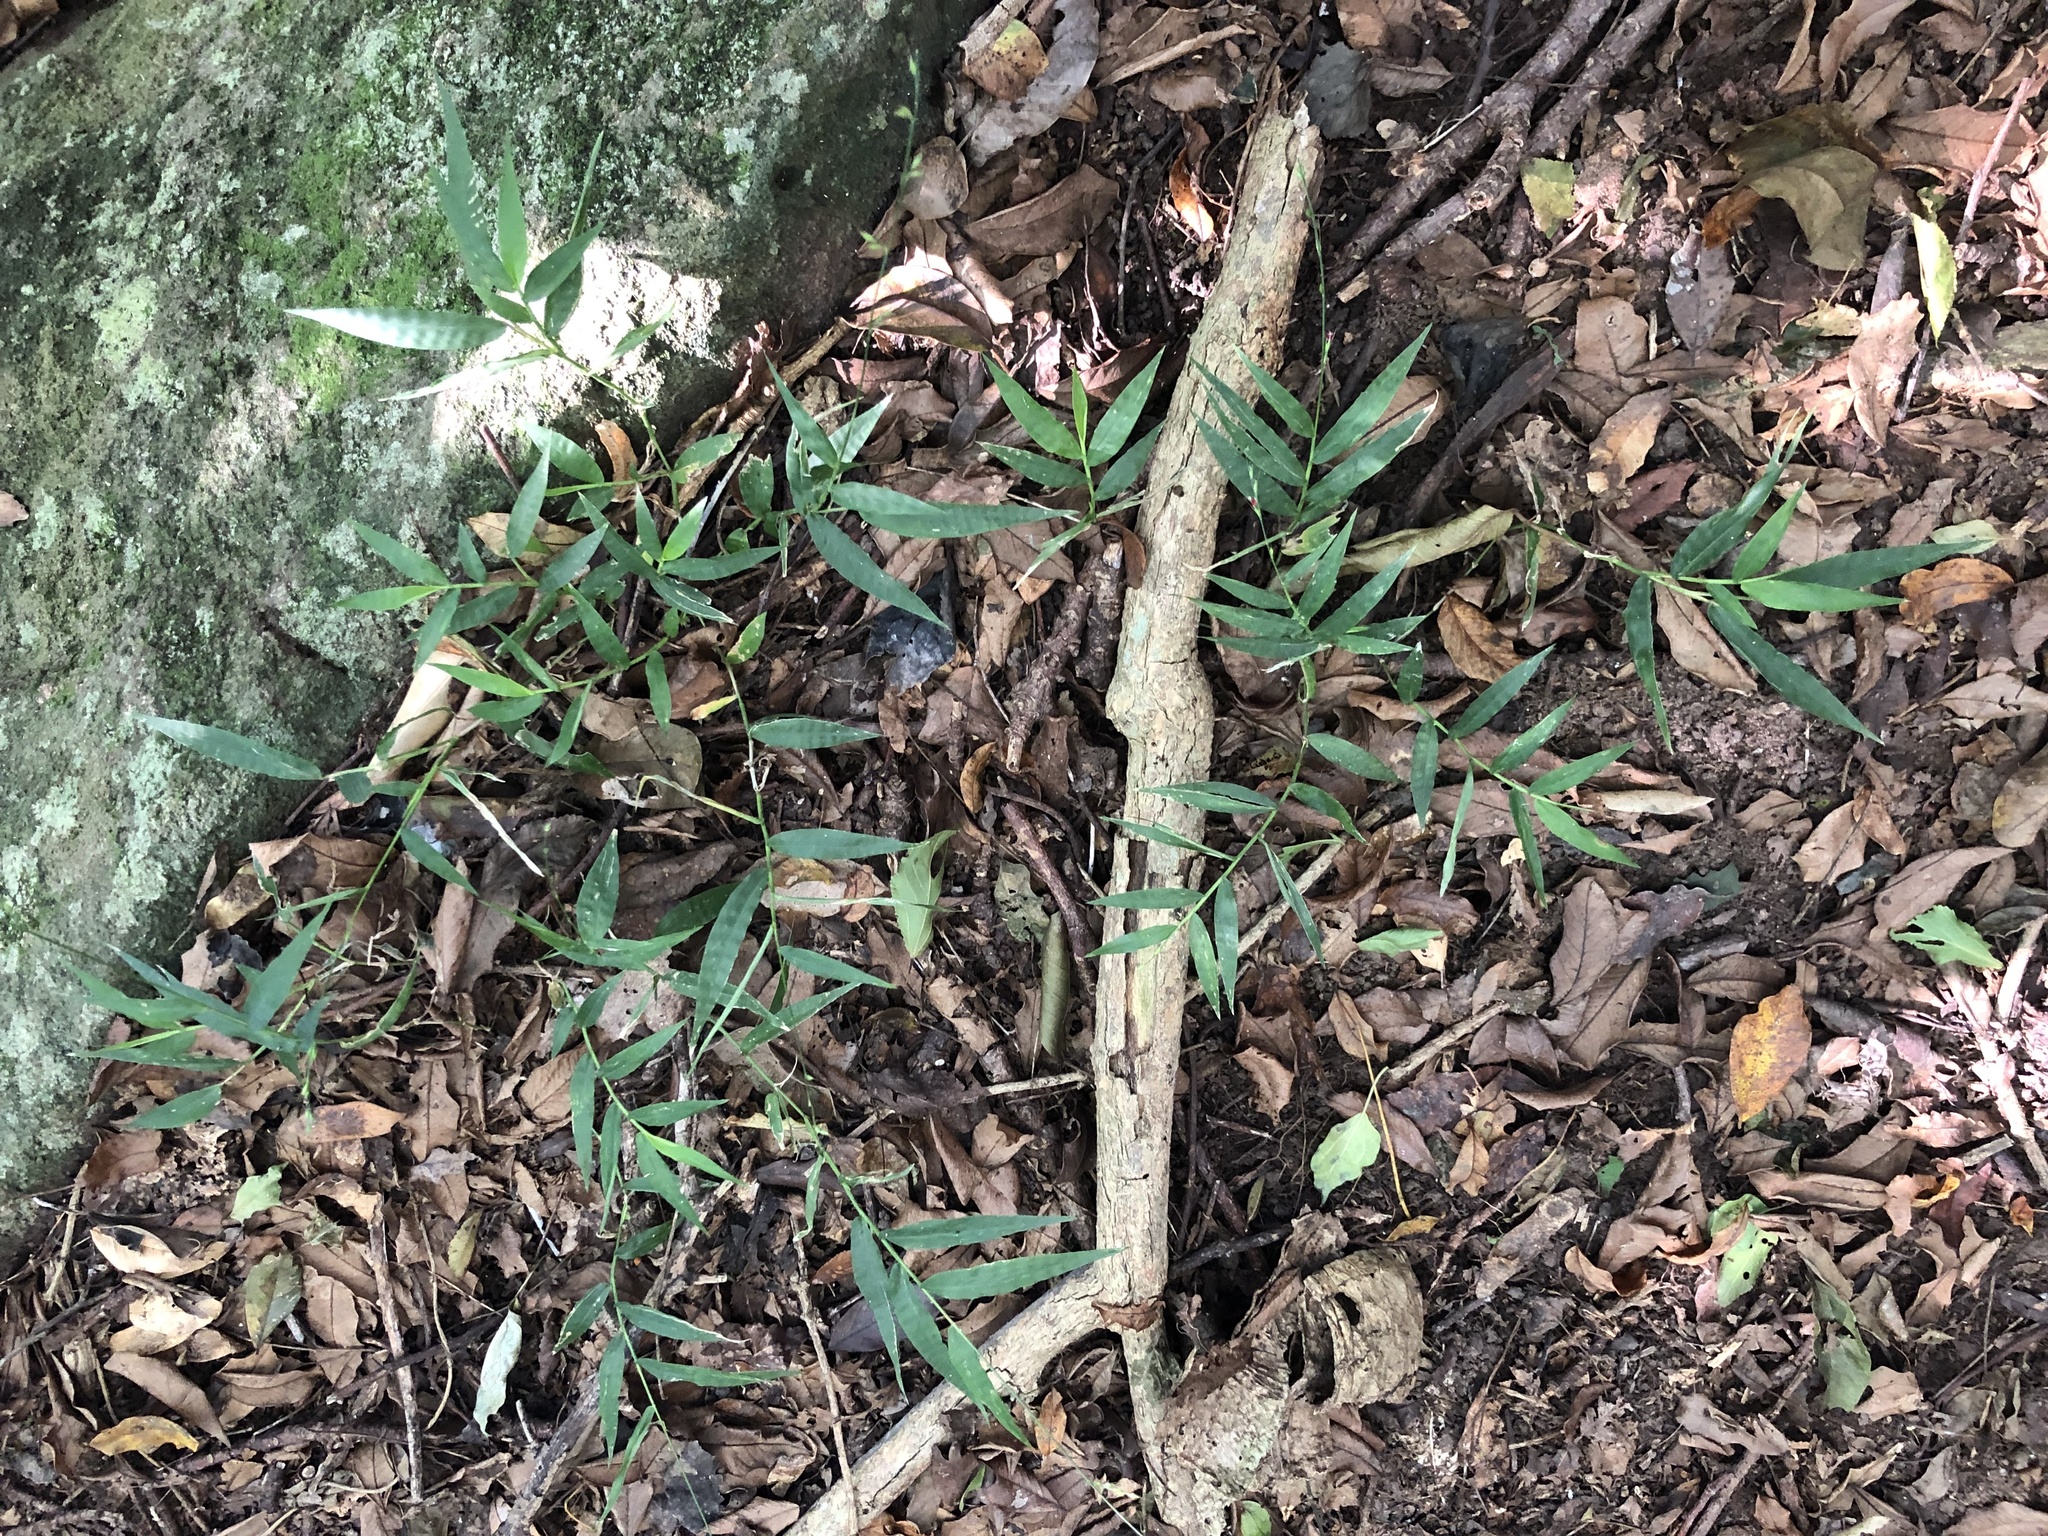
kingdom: Plantae
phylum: Tracheophyta
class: Liliopsida
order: Poales
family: Poaceae
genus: Oplismenus
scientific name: Oplismenus hirtellus
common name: Basketgrass
